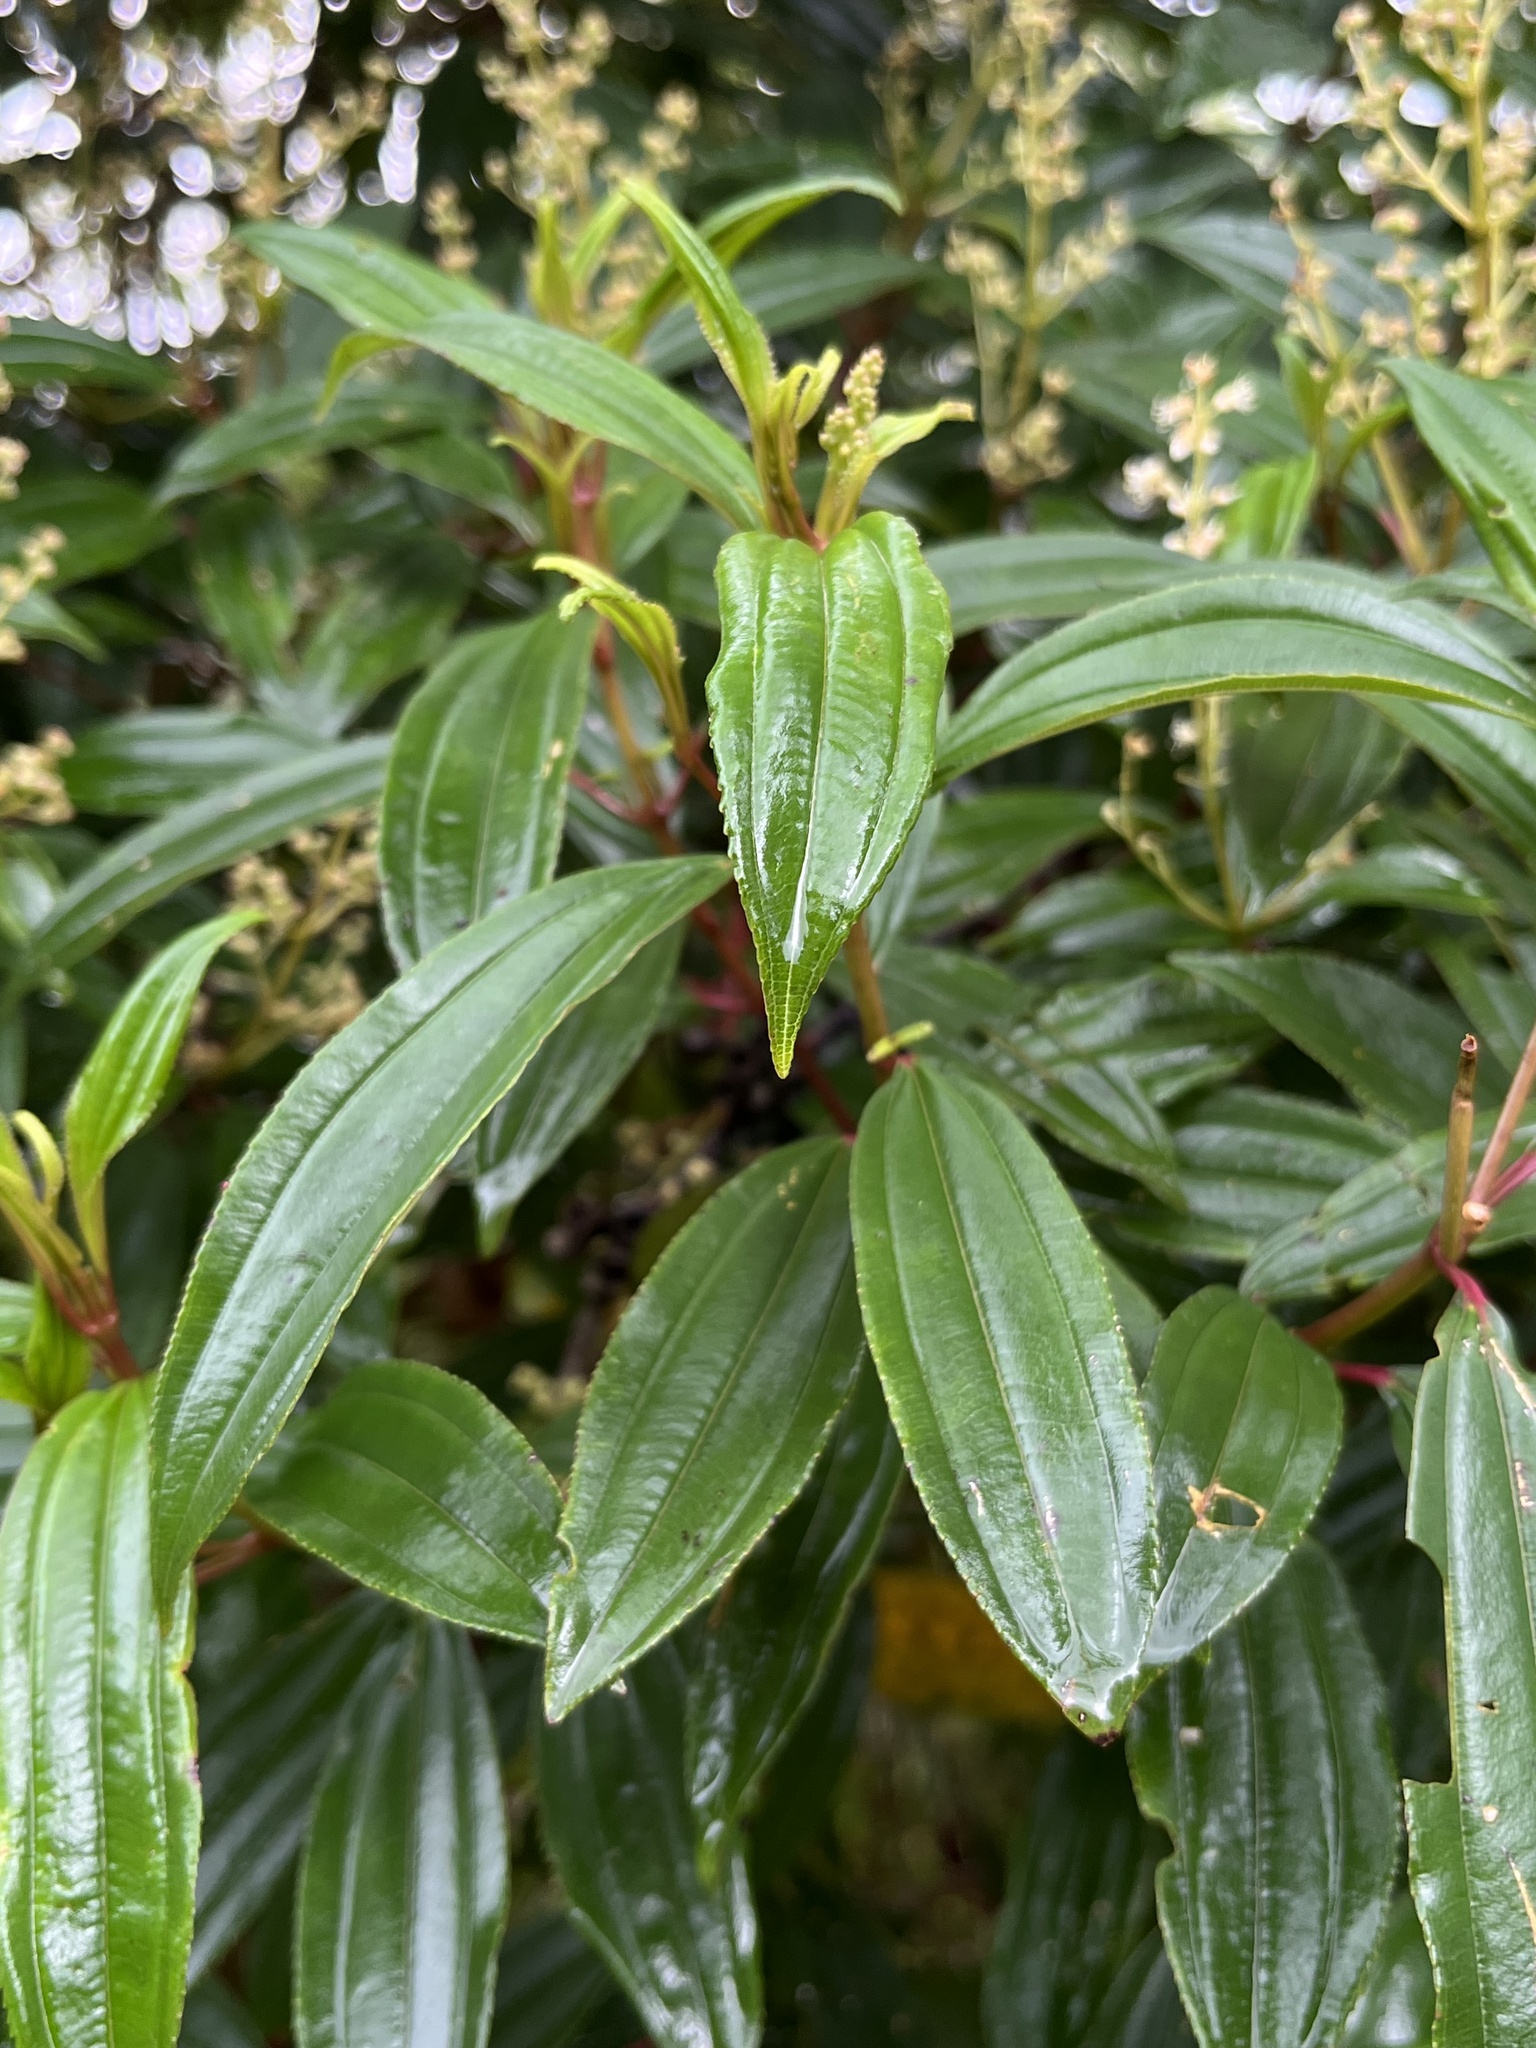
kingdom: Plantae
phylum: Tracheophyta
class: Magnoliopsida
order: Myrtales
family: Melastomataceae
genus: Miconia
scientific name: Miconia theizans
